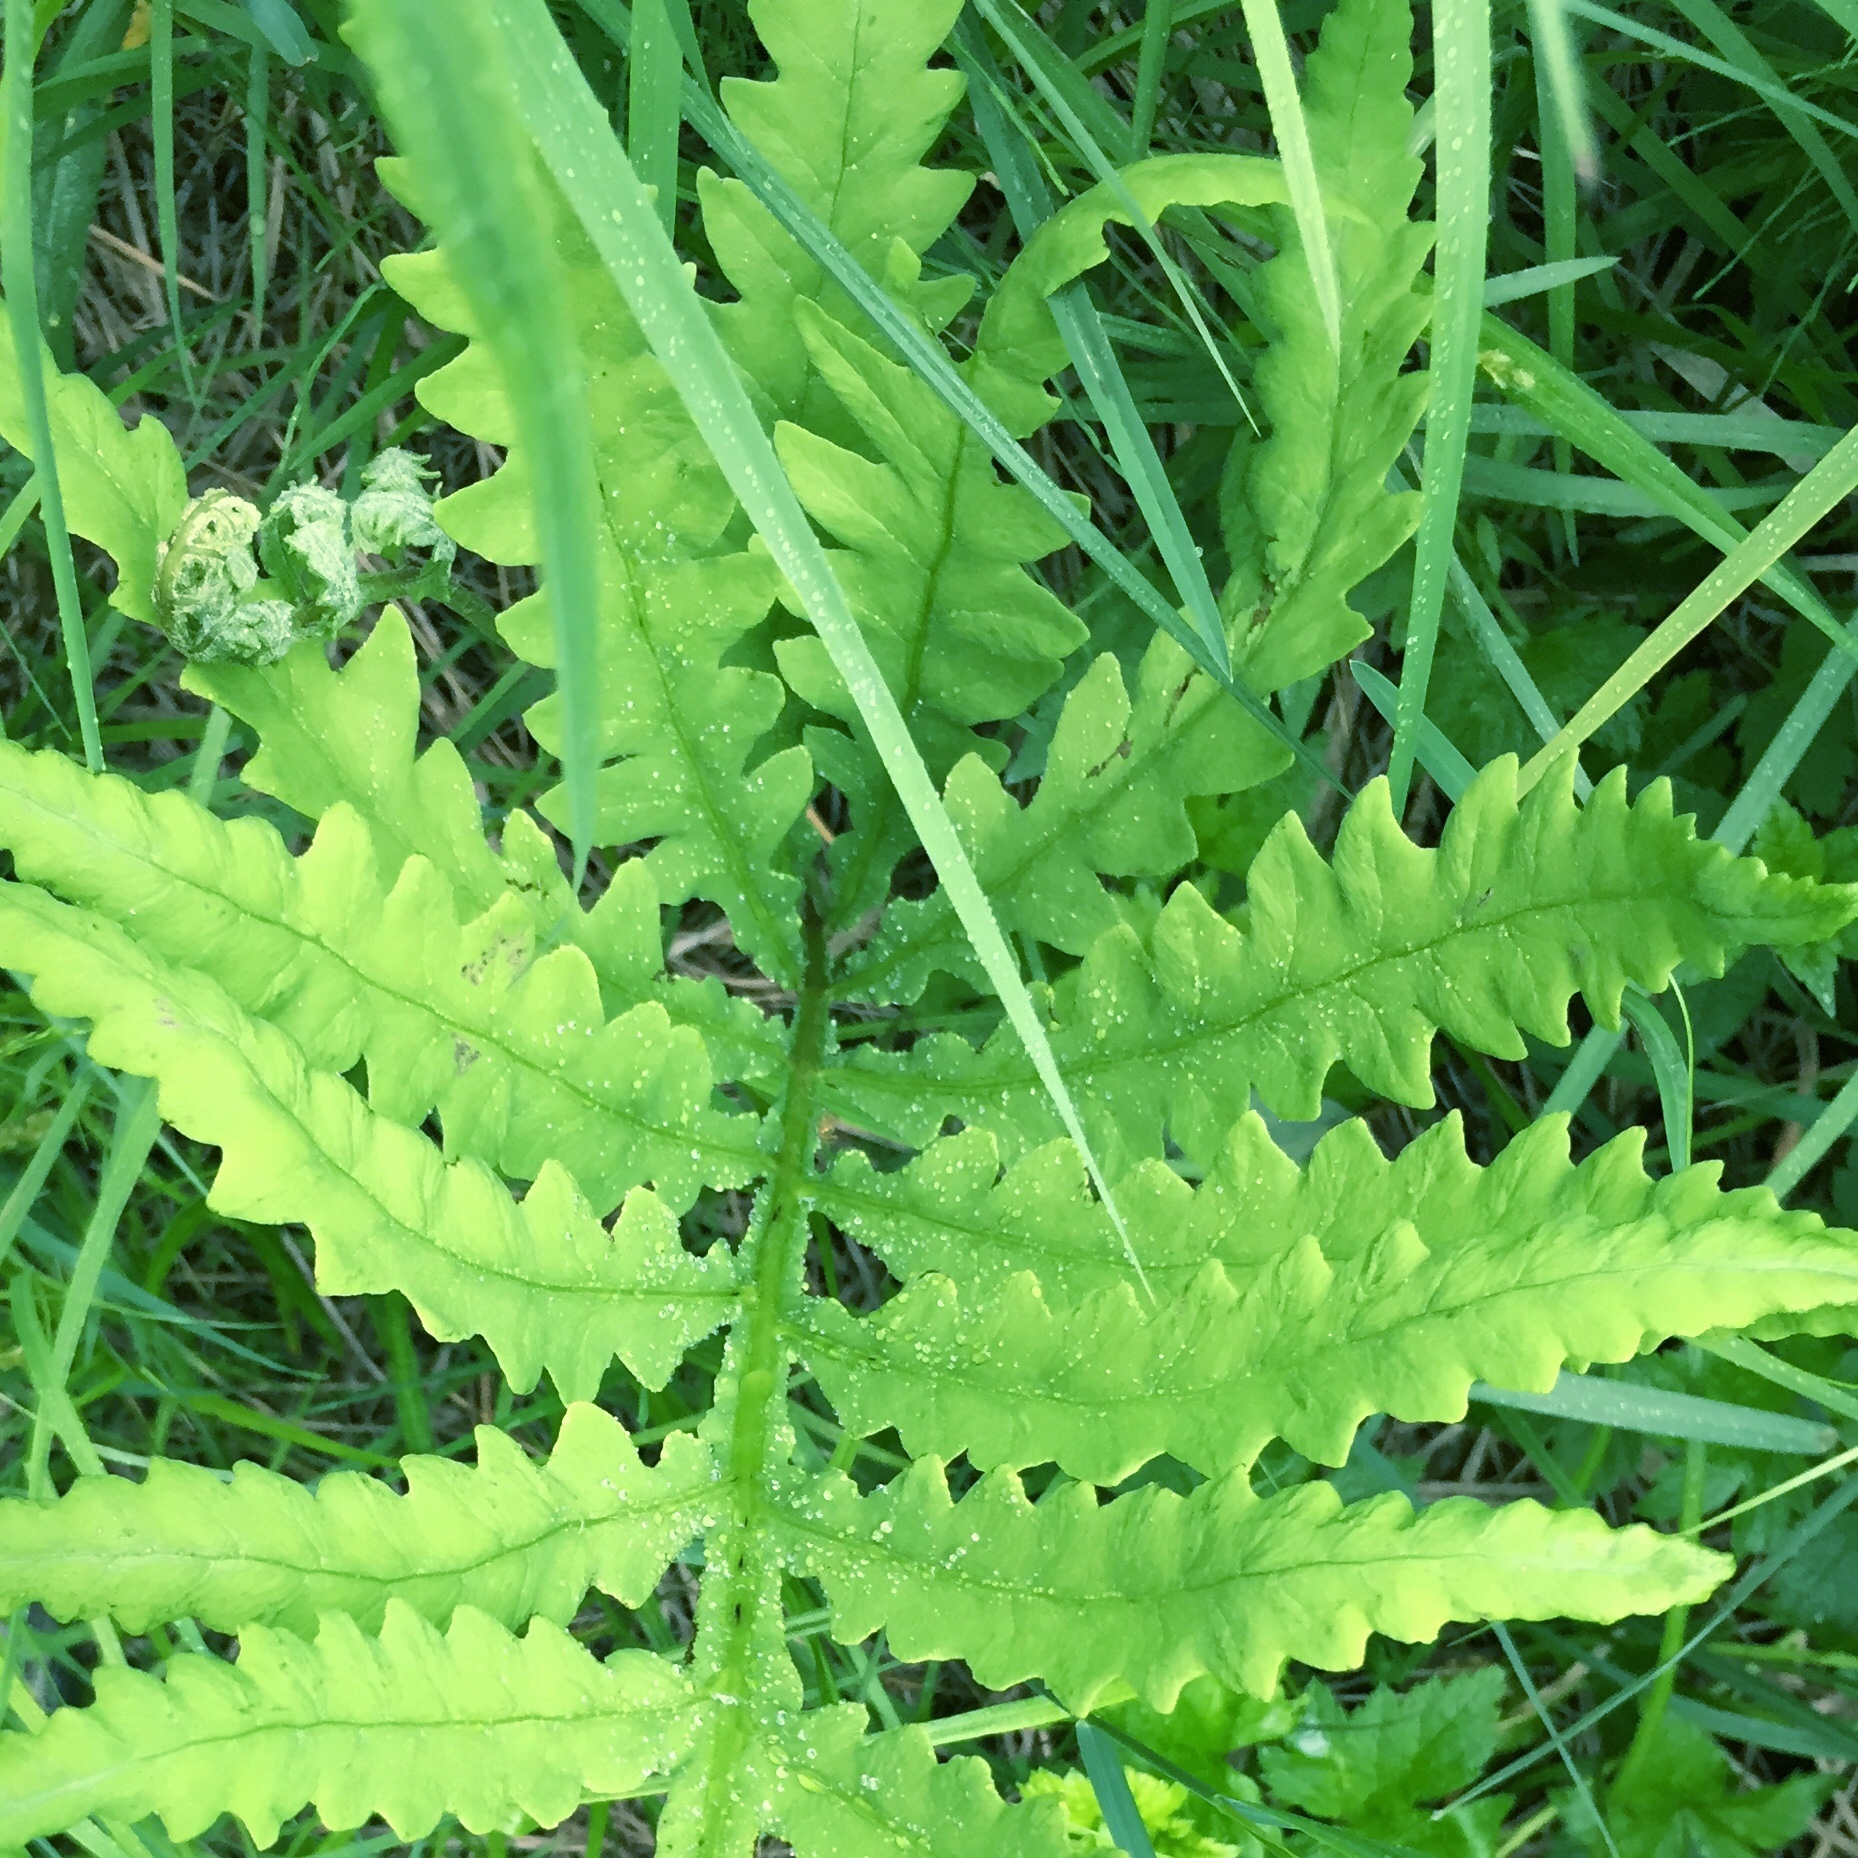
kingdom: Plantae
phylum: Tracheophyta
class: Polypodiopsida
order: Polypodiales
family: Onocleaceae
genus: Onoclea
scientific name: Onoclea sensibilis
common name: Sensitive fern
